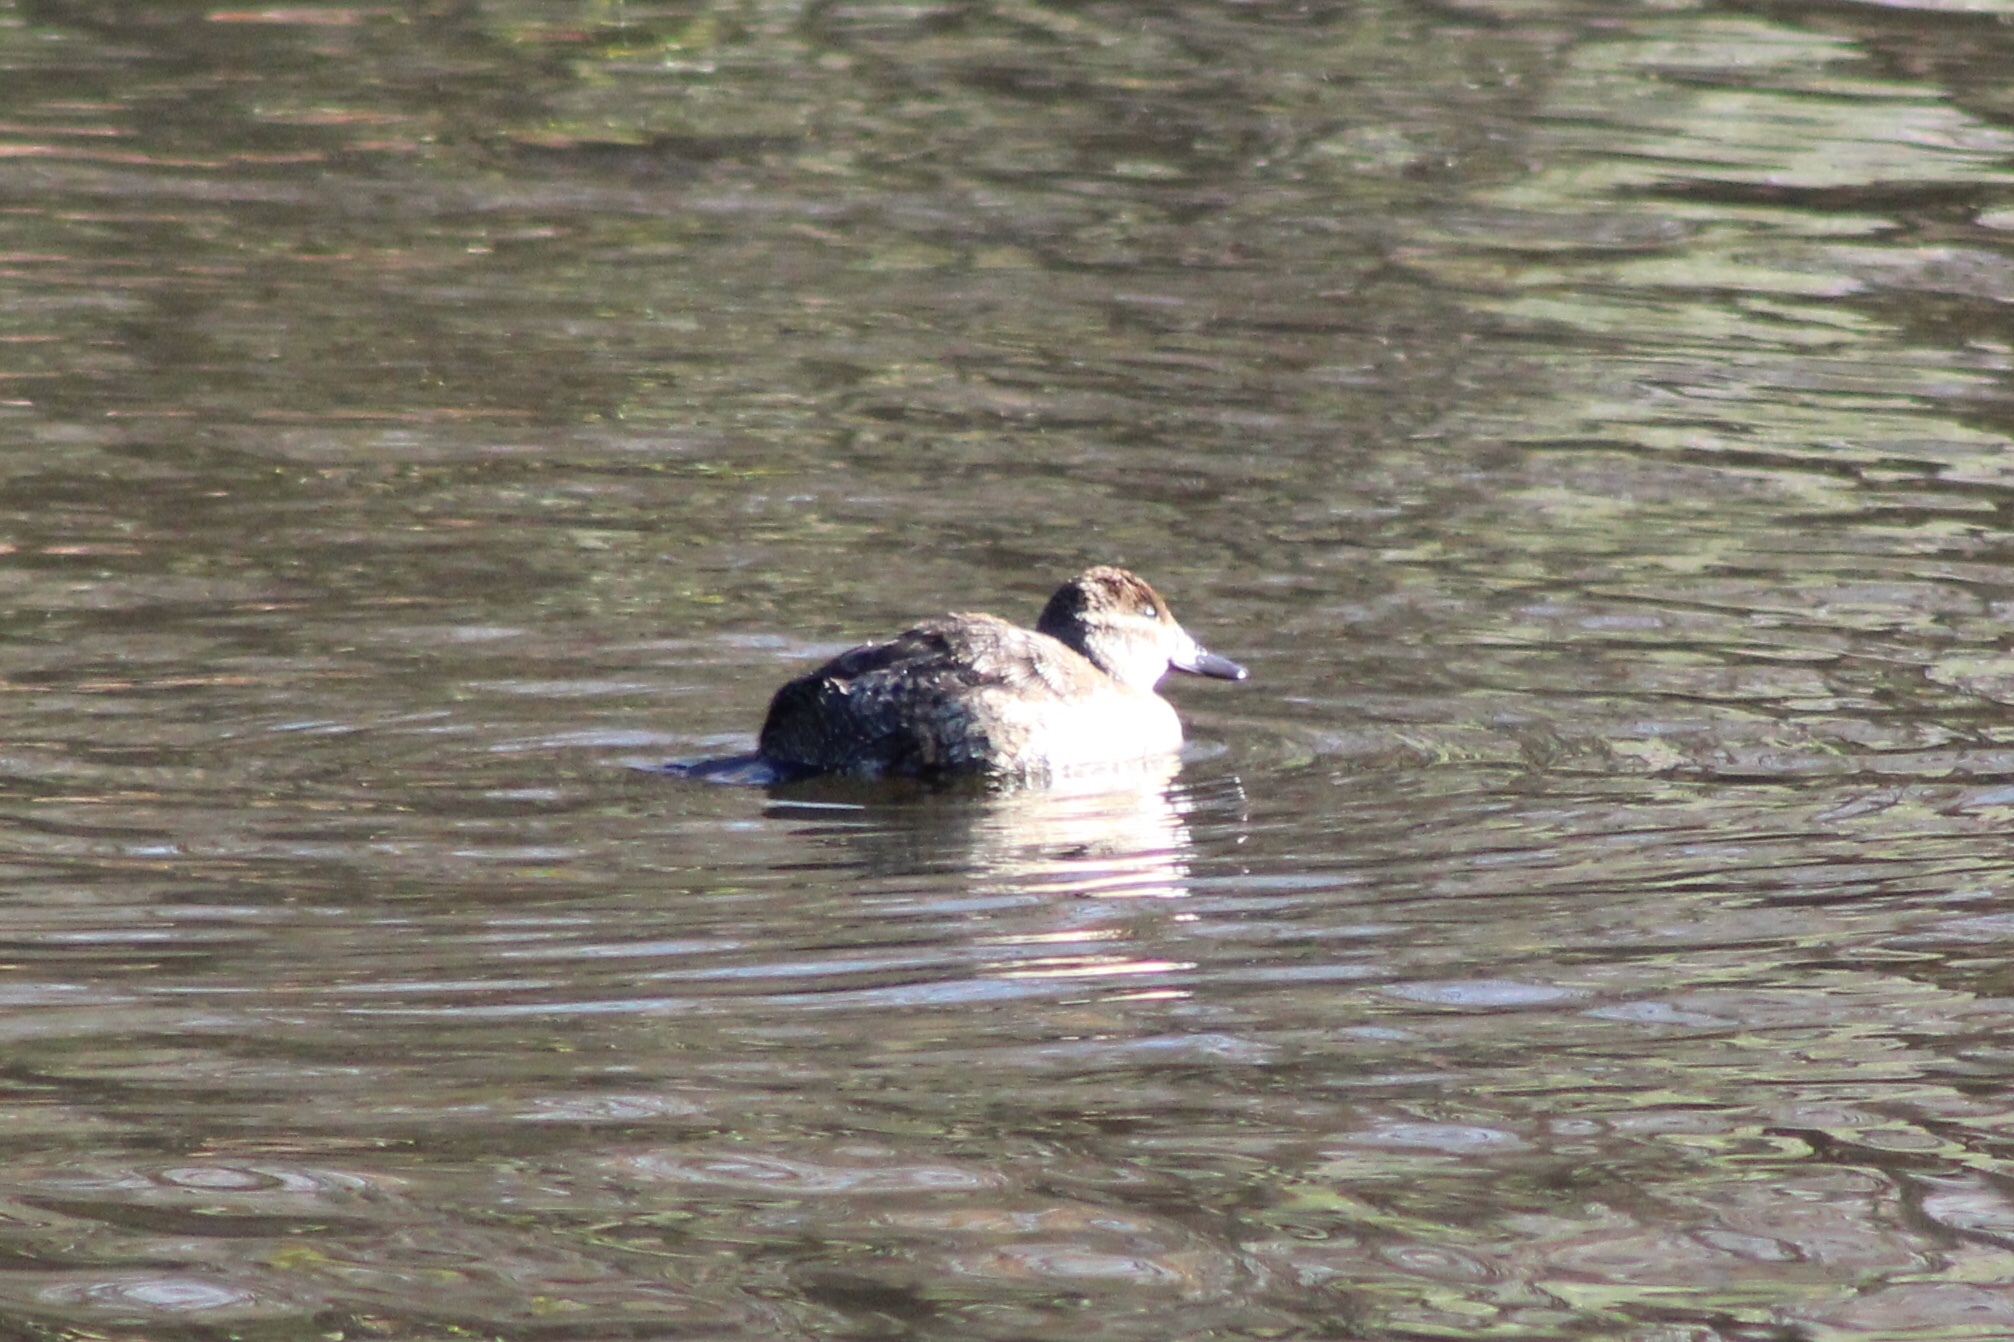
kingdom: Animalia
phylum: Chordata
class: Aves
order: Anseriformes
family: Anatidae
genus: Oxyura
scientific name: Oxyura jamaicensis
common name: Ruddy duck
